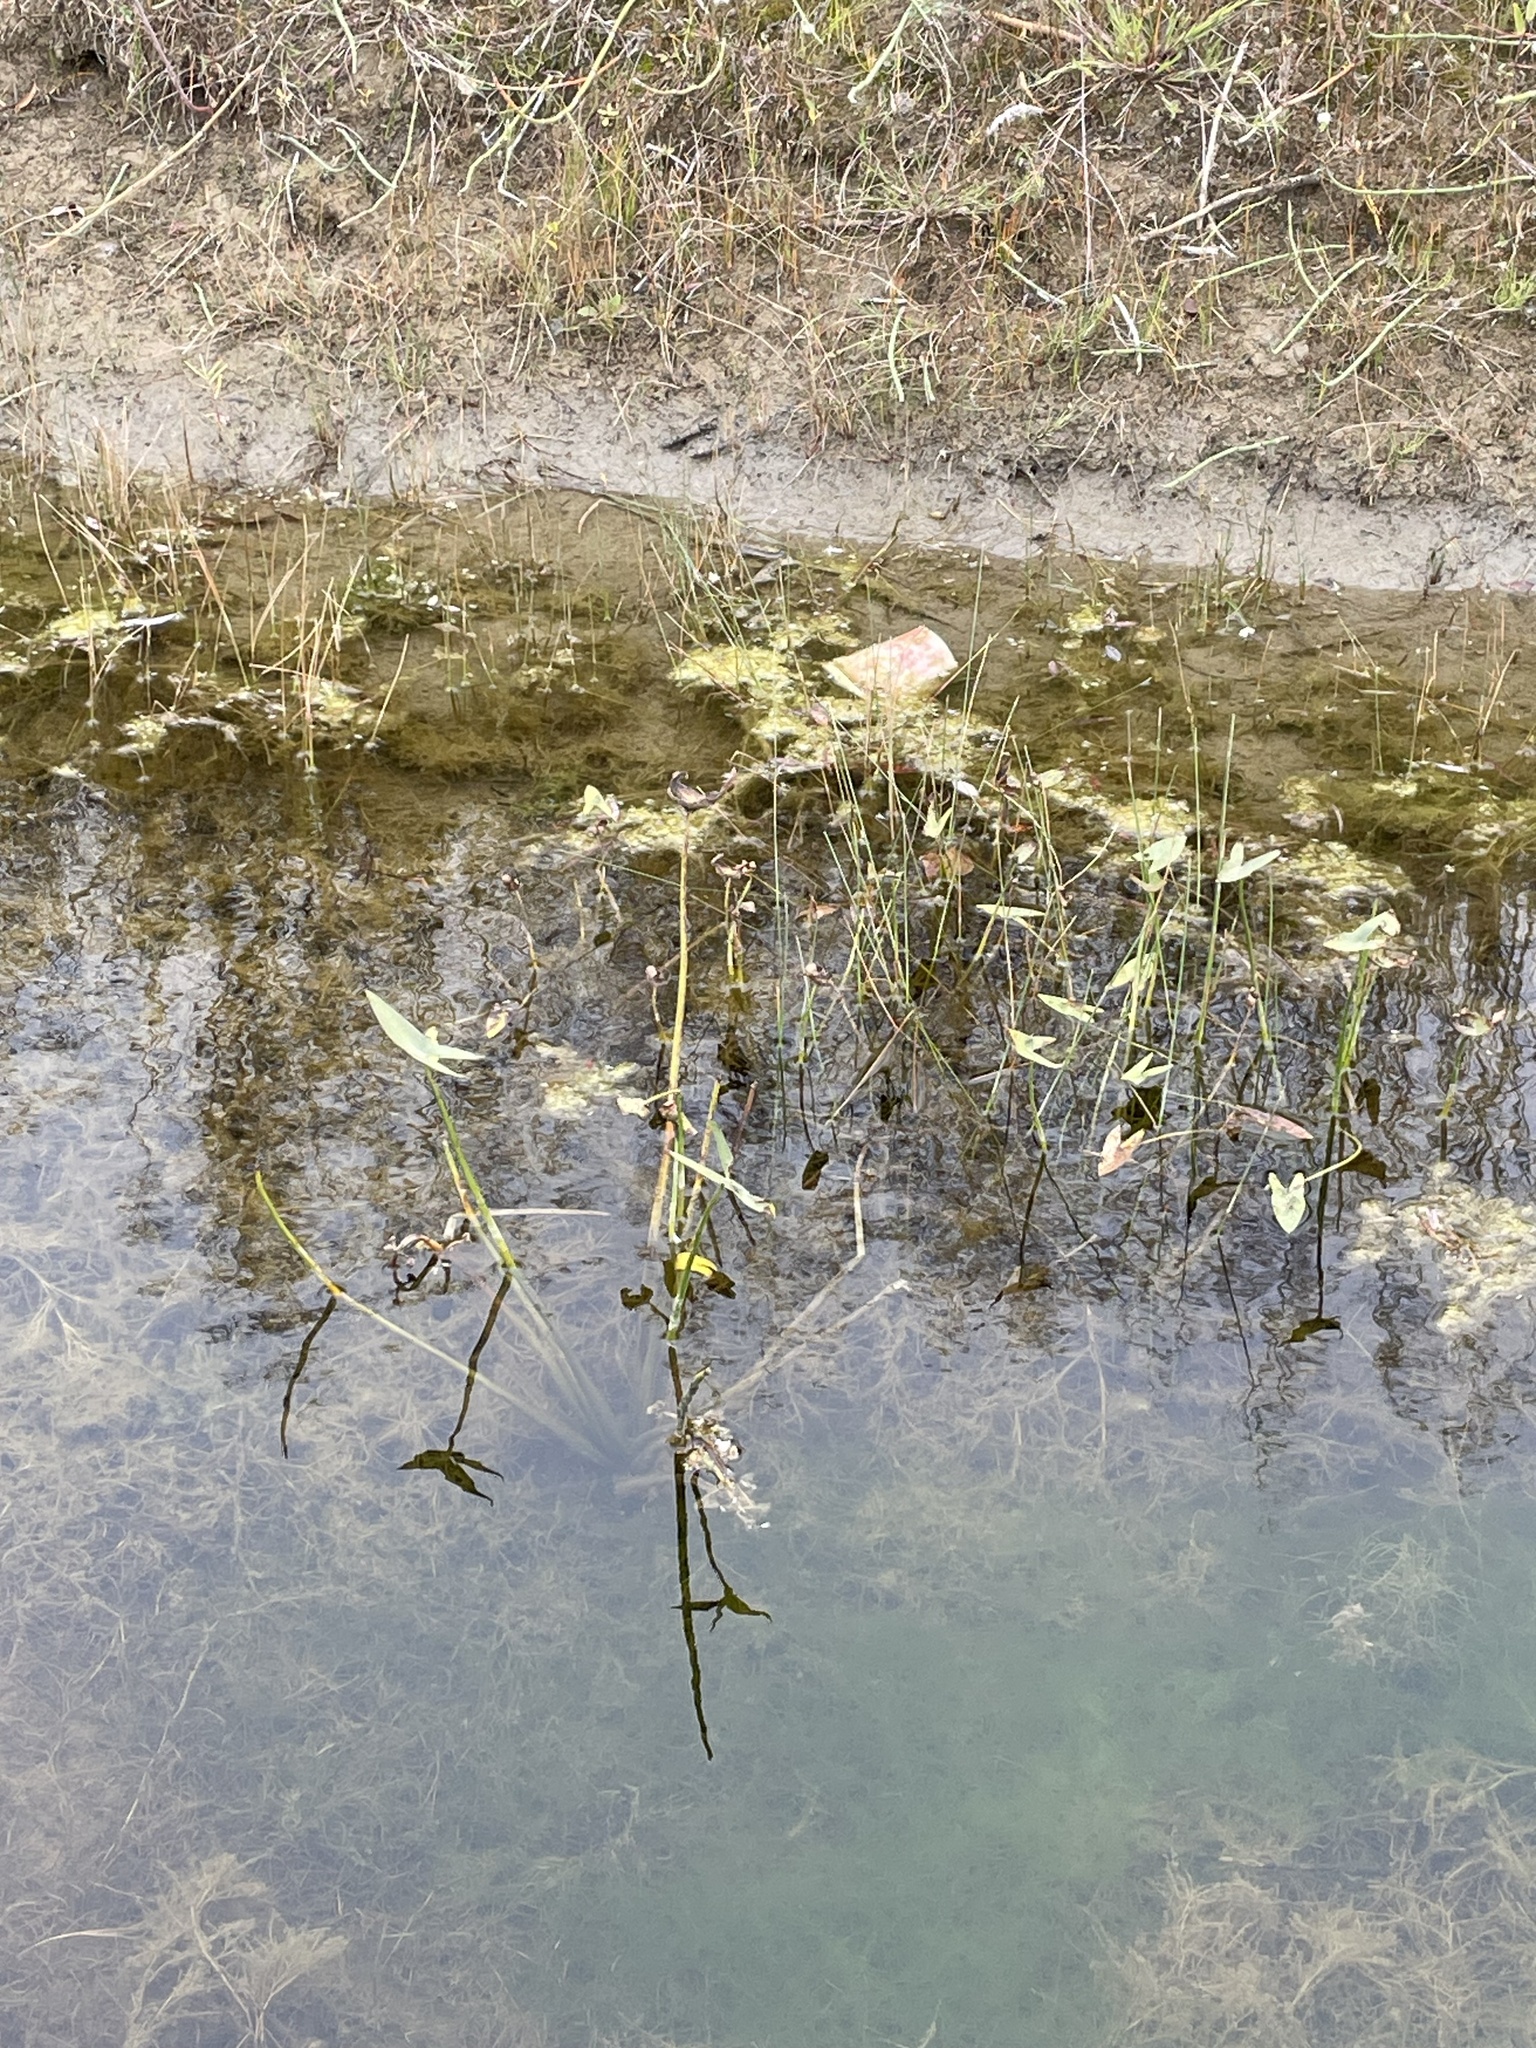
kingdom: Plantae
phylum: Tracheophyta
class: Liliopsida
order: Alismatales
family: Alismataceae
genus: Sagittaria
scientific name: Sagittaria cuneata
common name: Northern arrowhead
